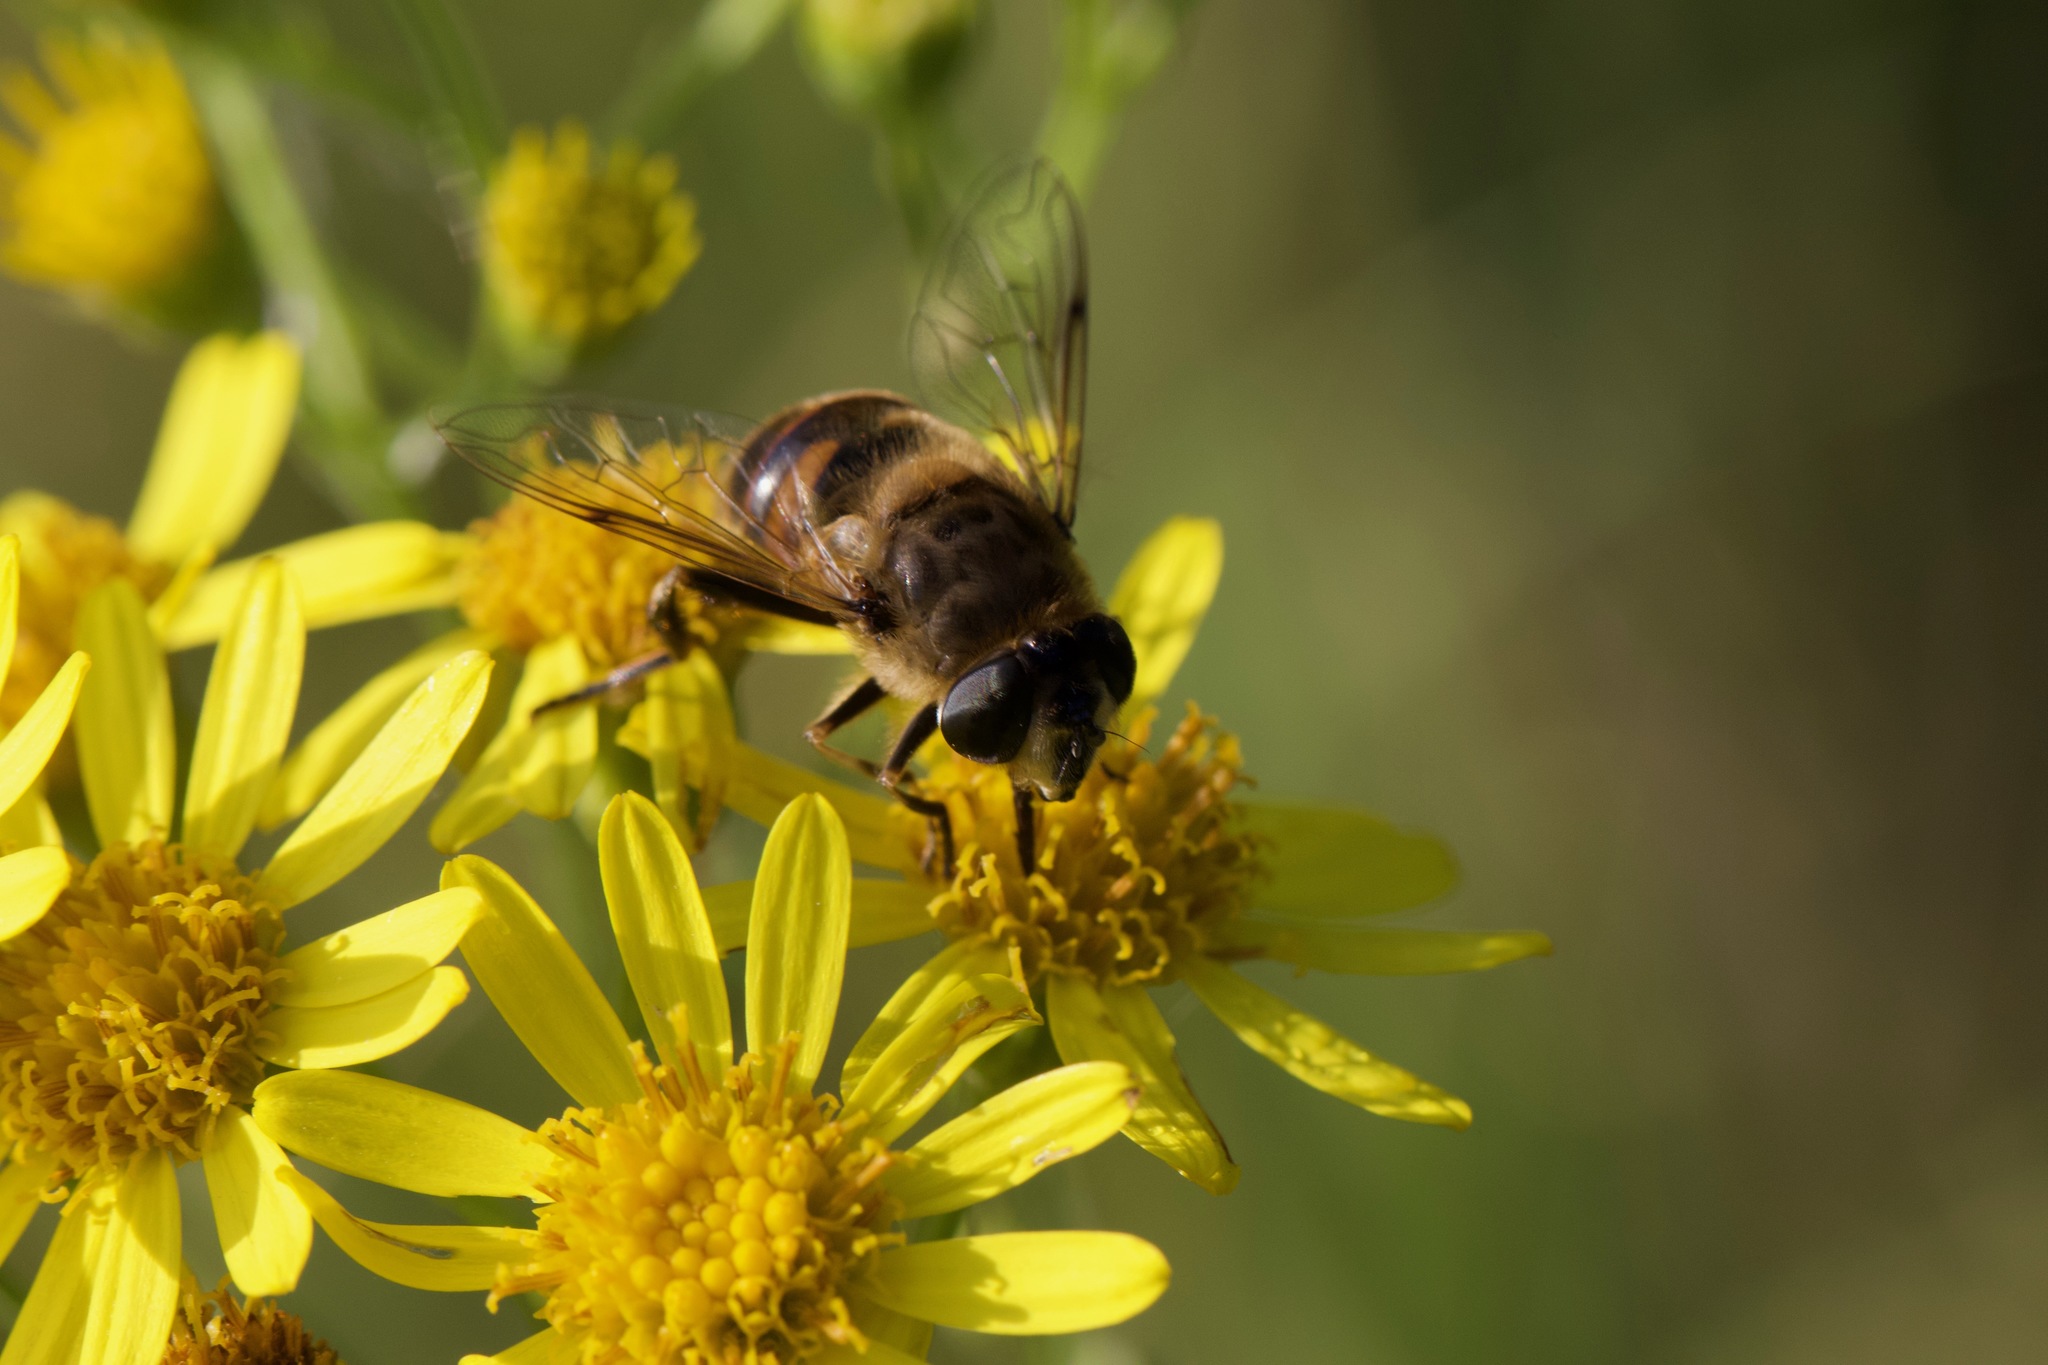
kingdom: Animalia
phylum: Arthropoda
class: Insecta
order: Diptera
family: Syrphidae
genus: Eristalis
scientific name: Eristalis tenax
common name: Drone fly
